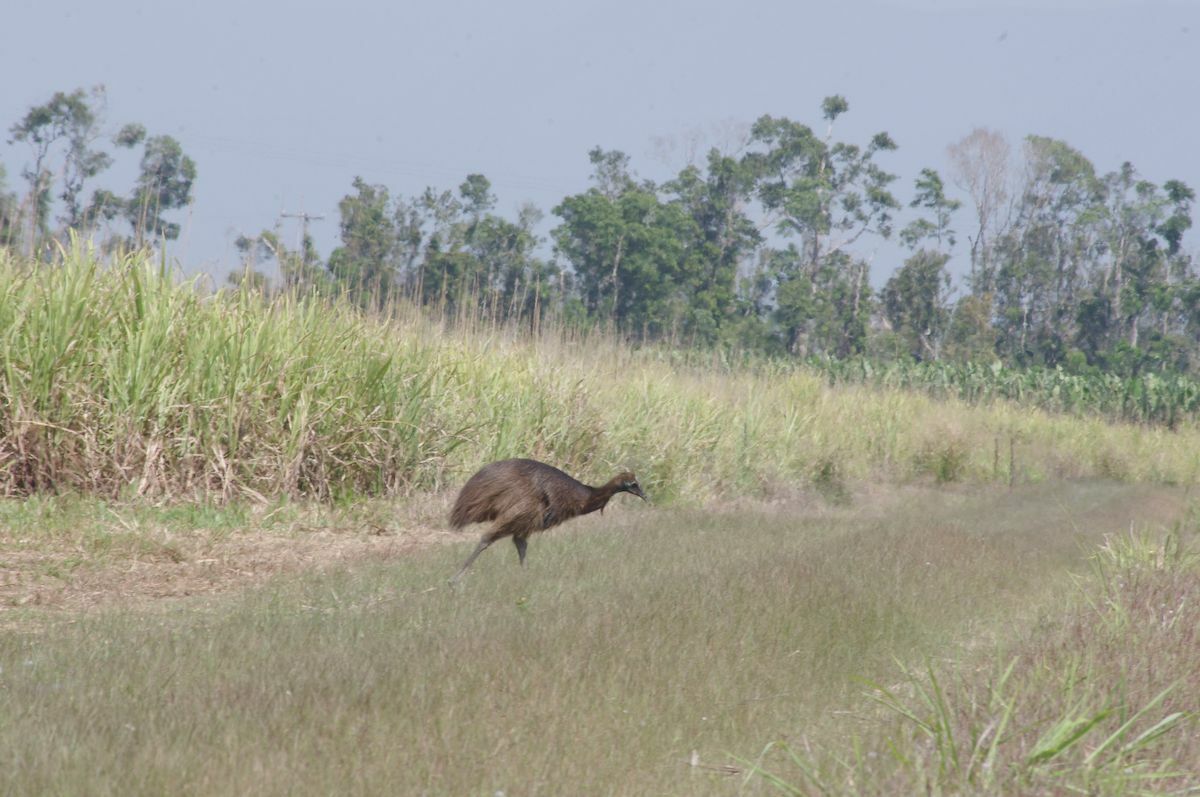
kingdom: Animalia
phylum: Chordata
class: Aves
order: Casuariiformes
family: Casuariidae
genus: Casuarius
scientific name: Casuarius casuarius
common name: Southern cassowary
